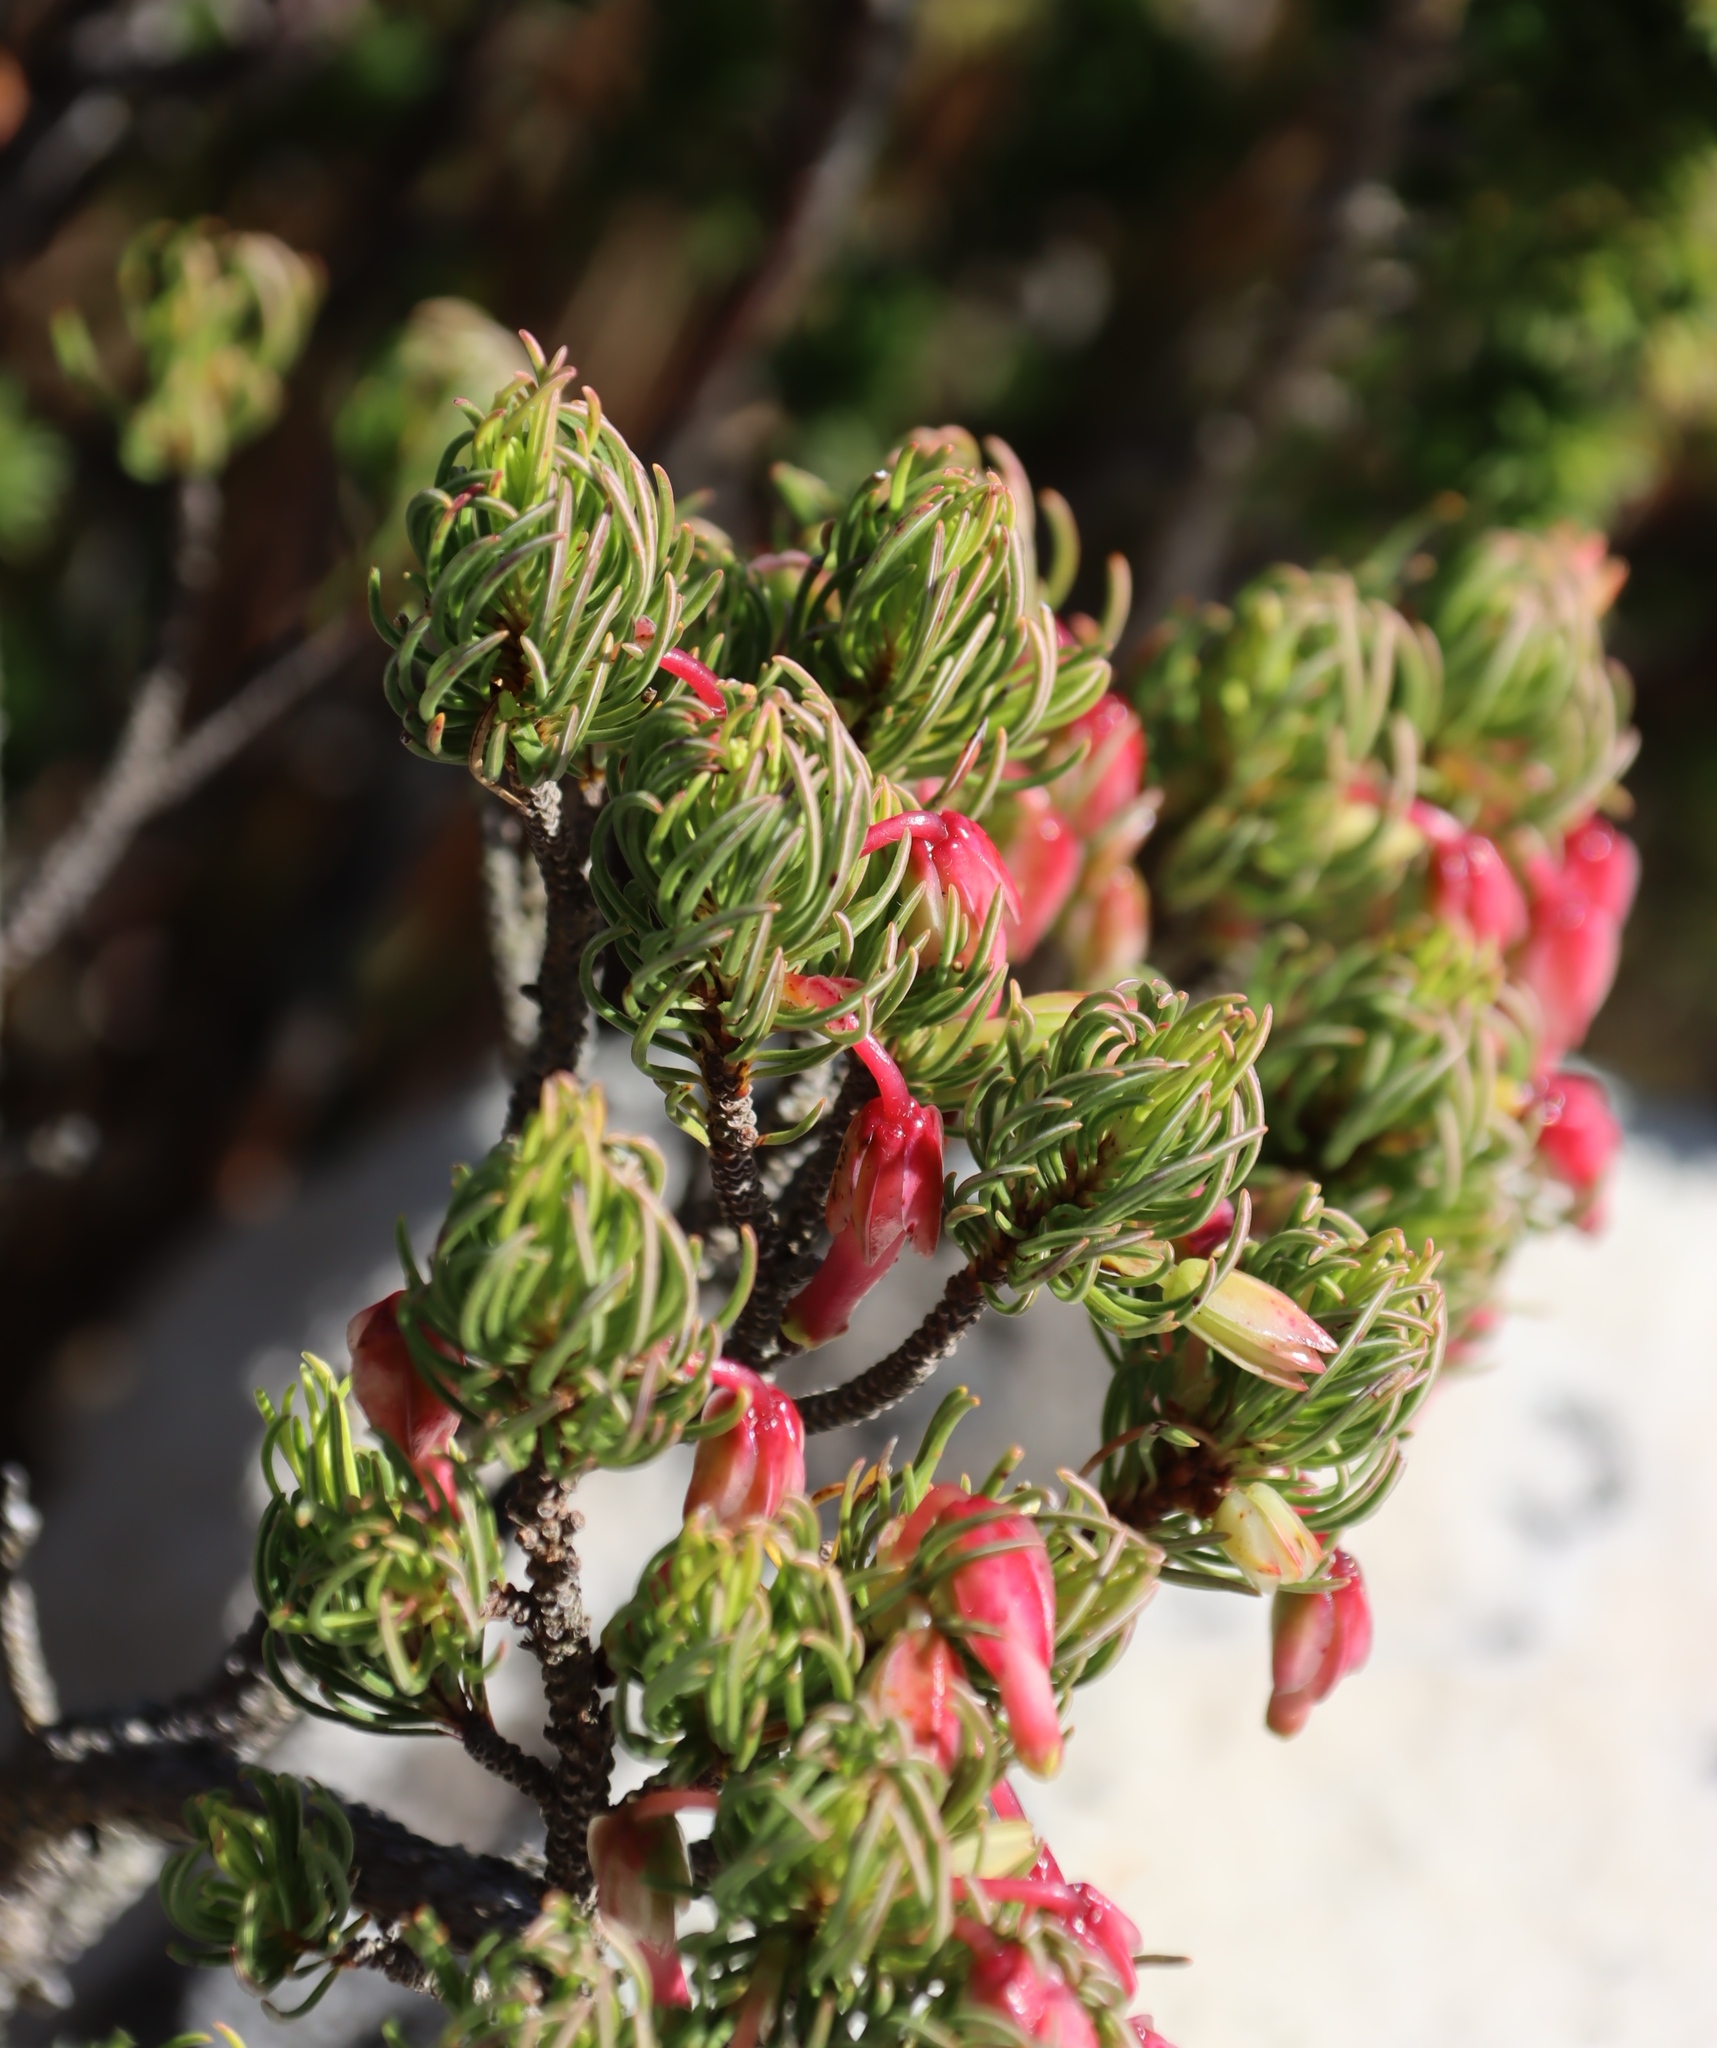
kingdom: Plantae
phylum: Tracheophyta
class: Magnoliopsida
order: Ericales
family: Ericaceae
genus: Erica
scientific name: Erica plukenetii
